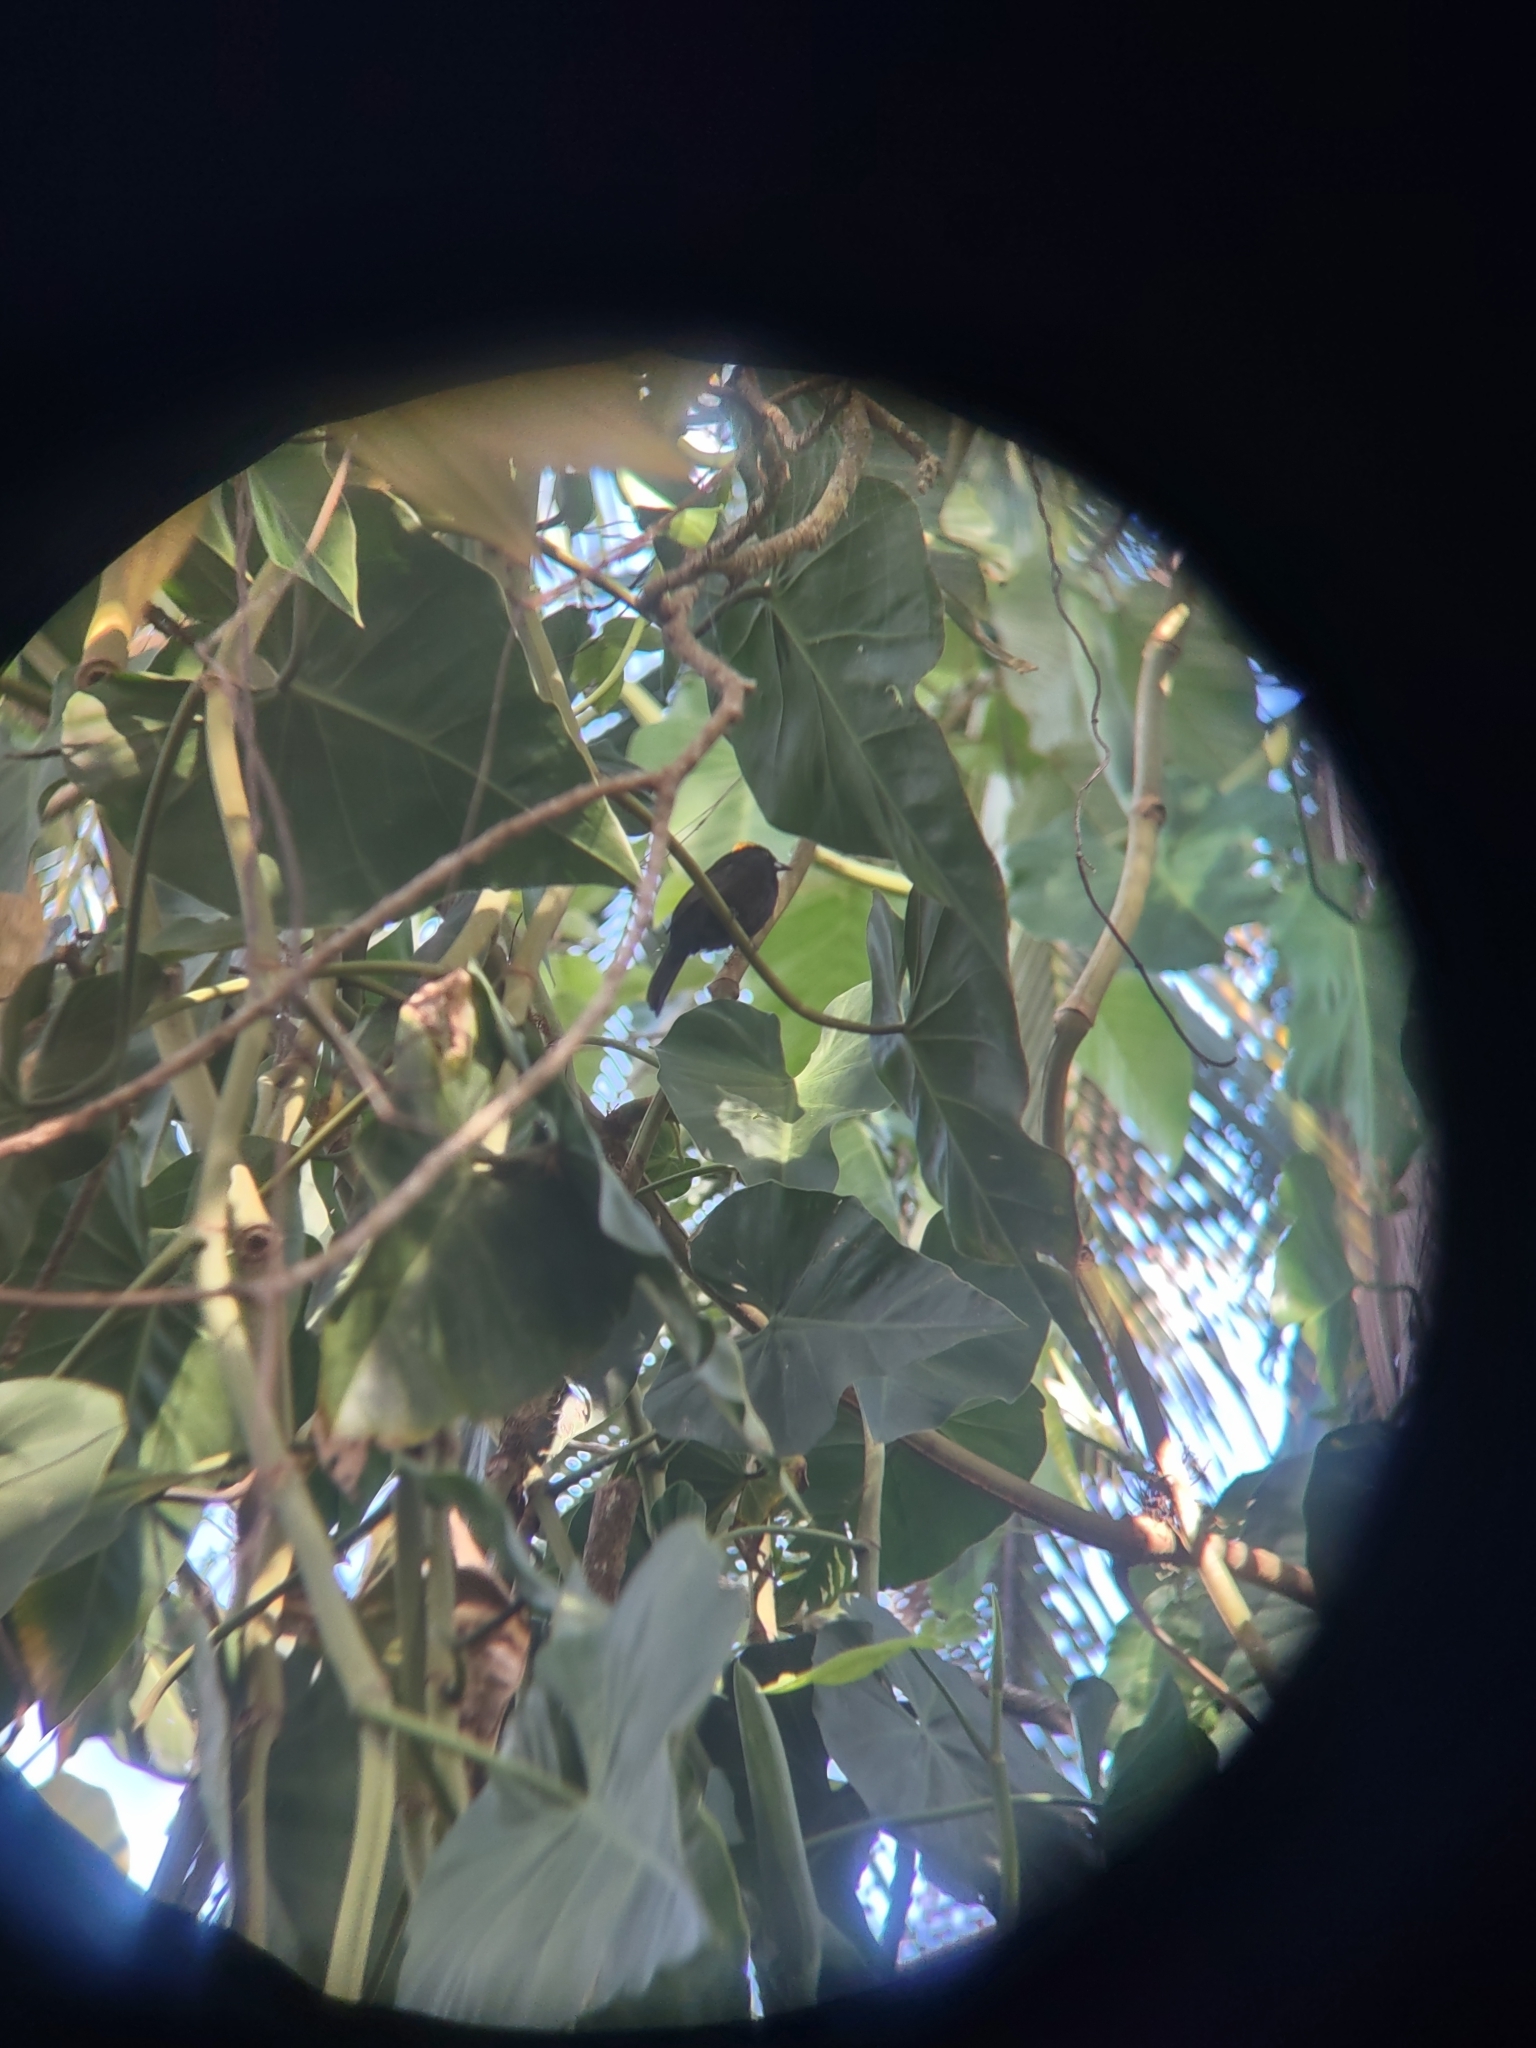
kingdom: Animalia
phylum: Chordata
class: Aves
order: Passeriformes
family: Thraupidae
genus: Tachyphonus
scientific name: Tachyphonus delatrii
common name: Tawny-crested tanager
